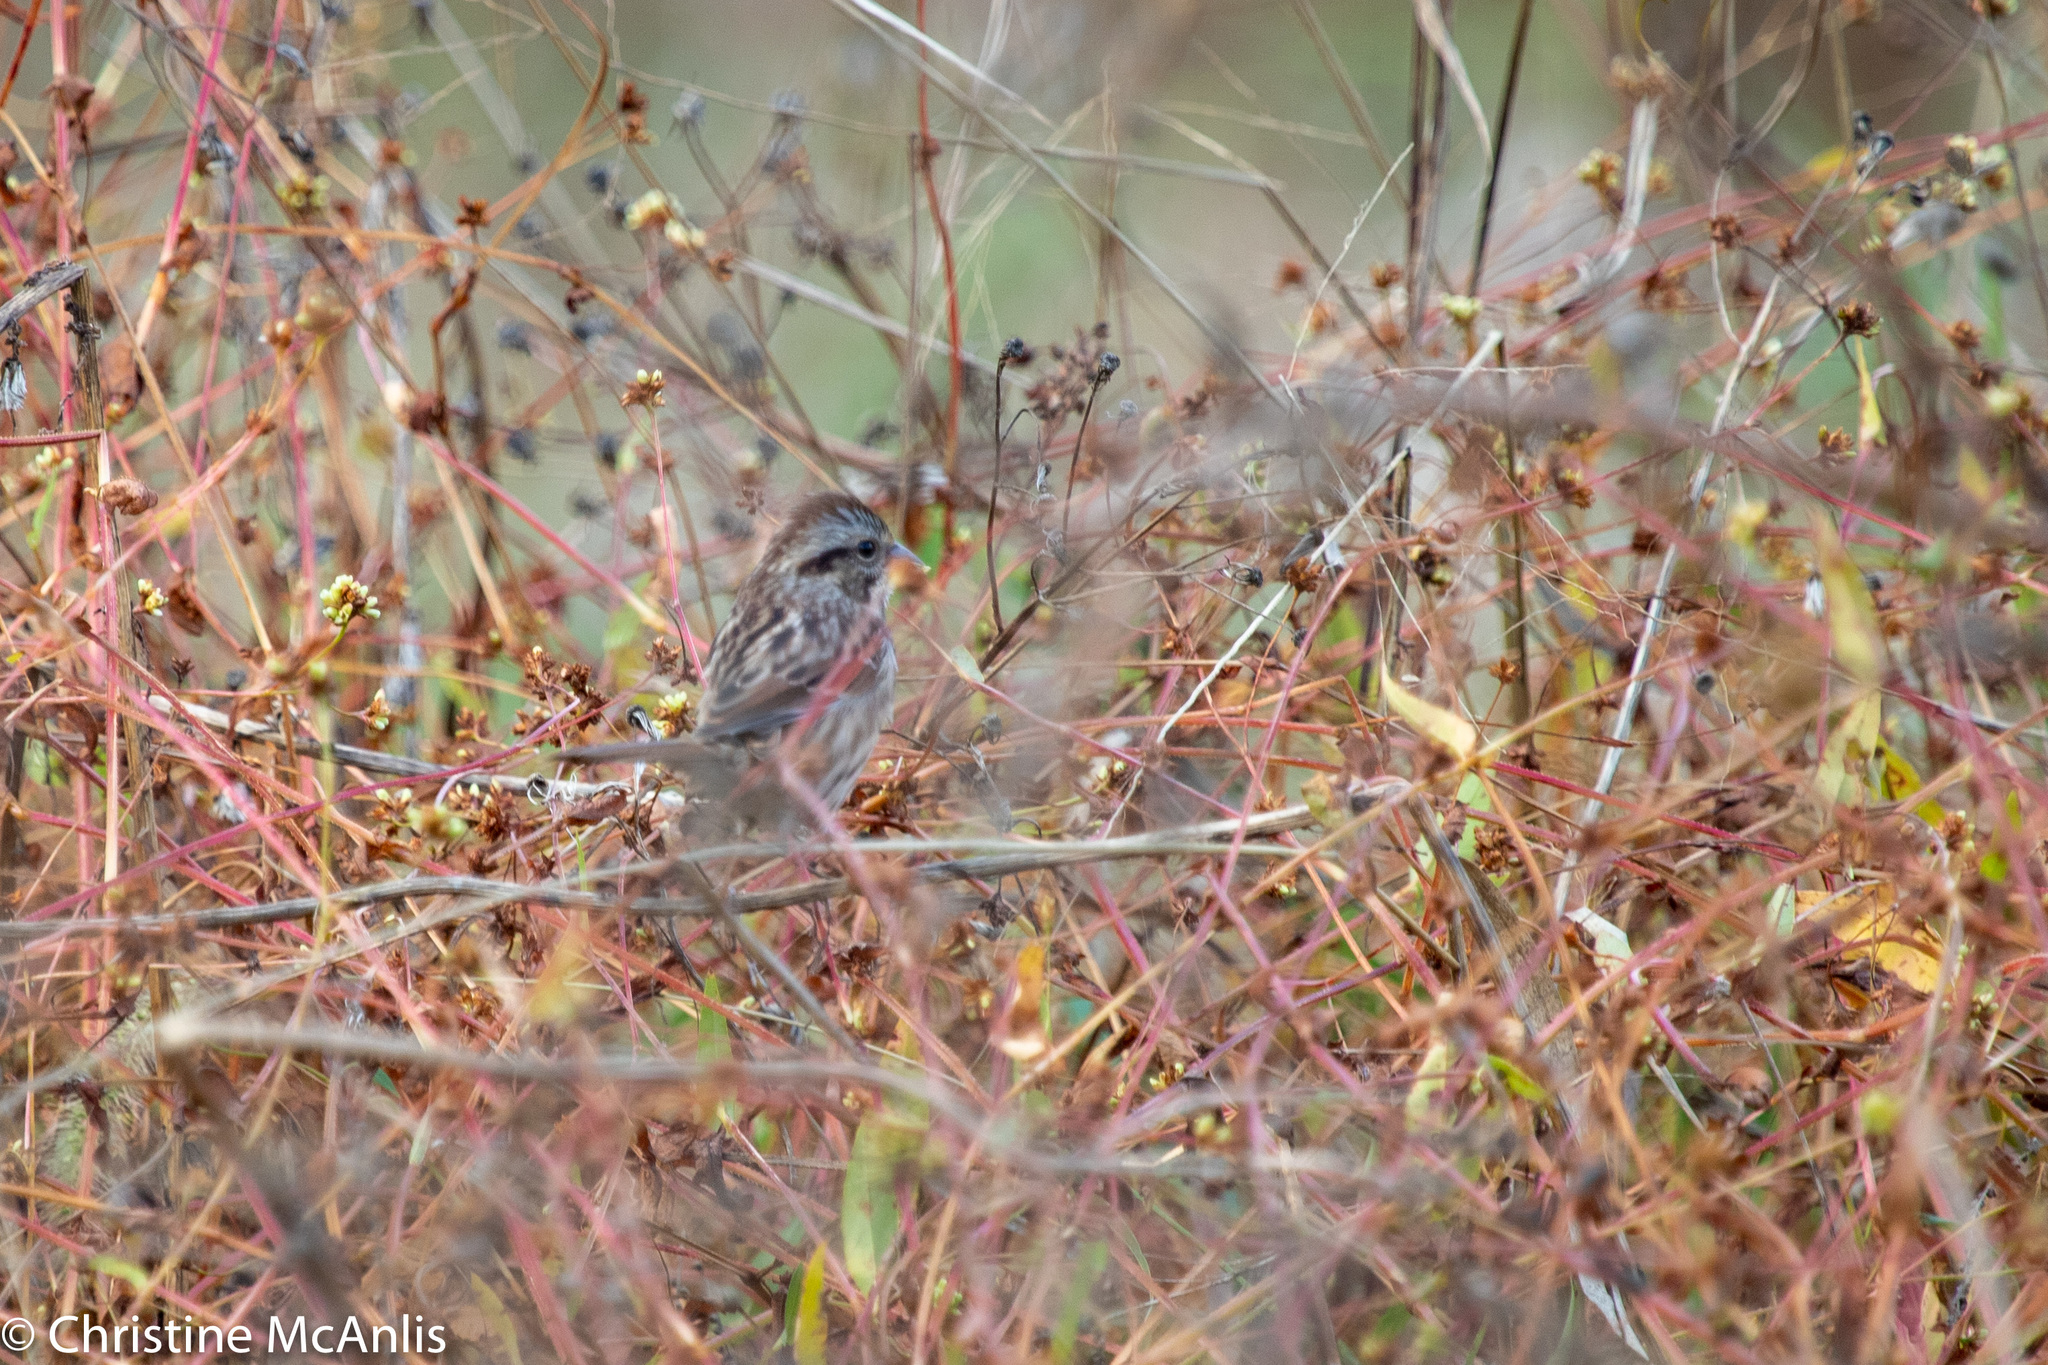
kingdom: Animalia
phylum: Chordata
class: Aves
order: Passeriformes
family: Passerellidae
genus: Melospiza
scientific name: Melospiza georgiana
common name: Swamp sparrow
